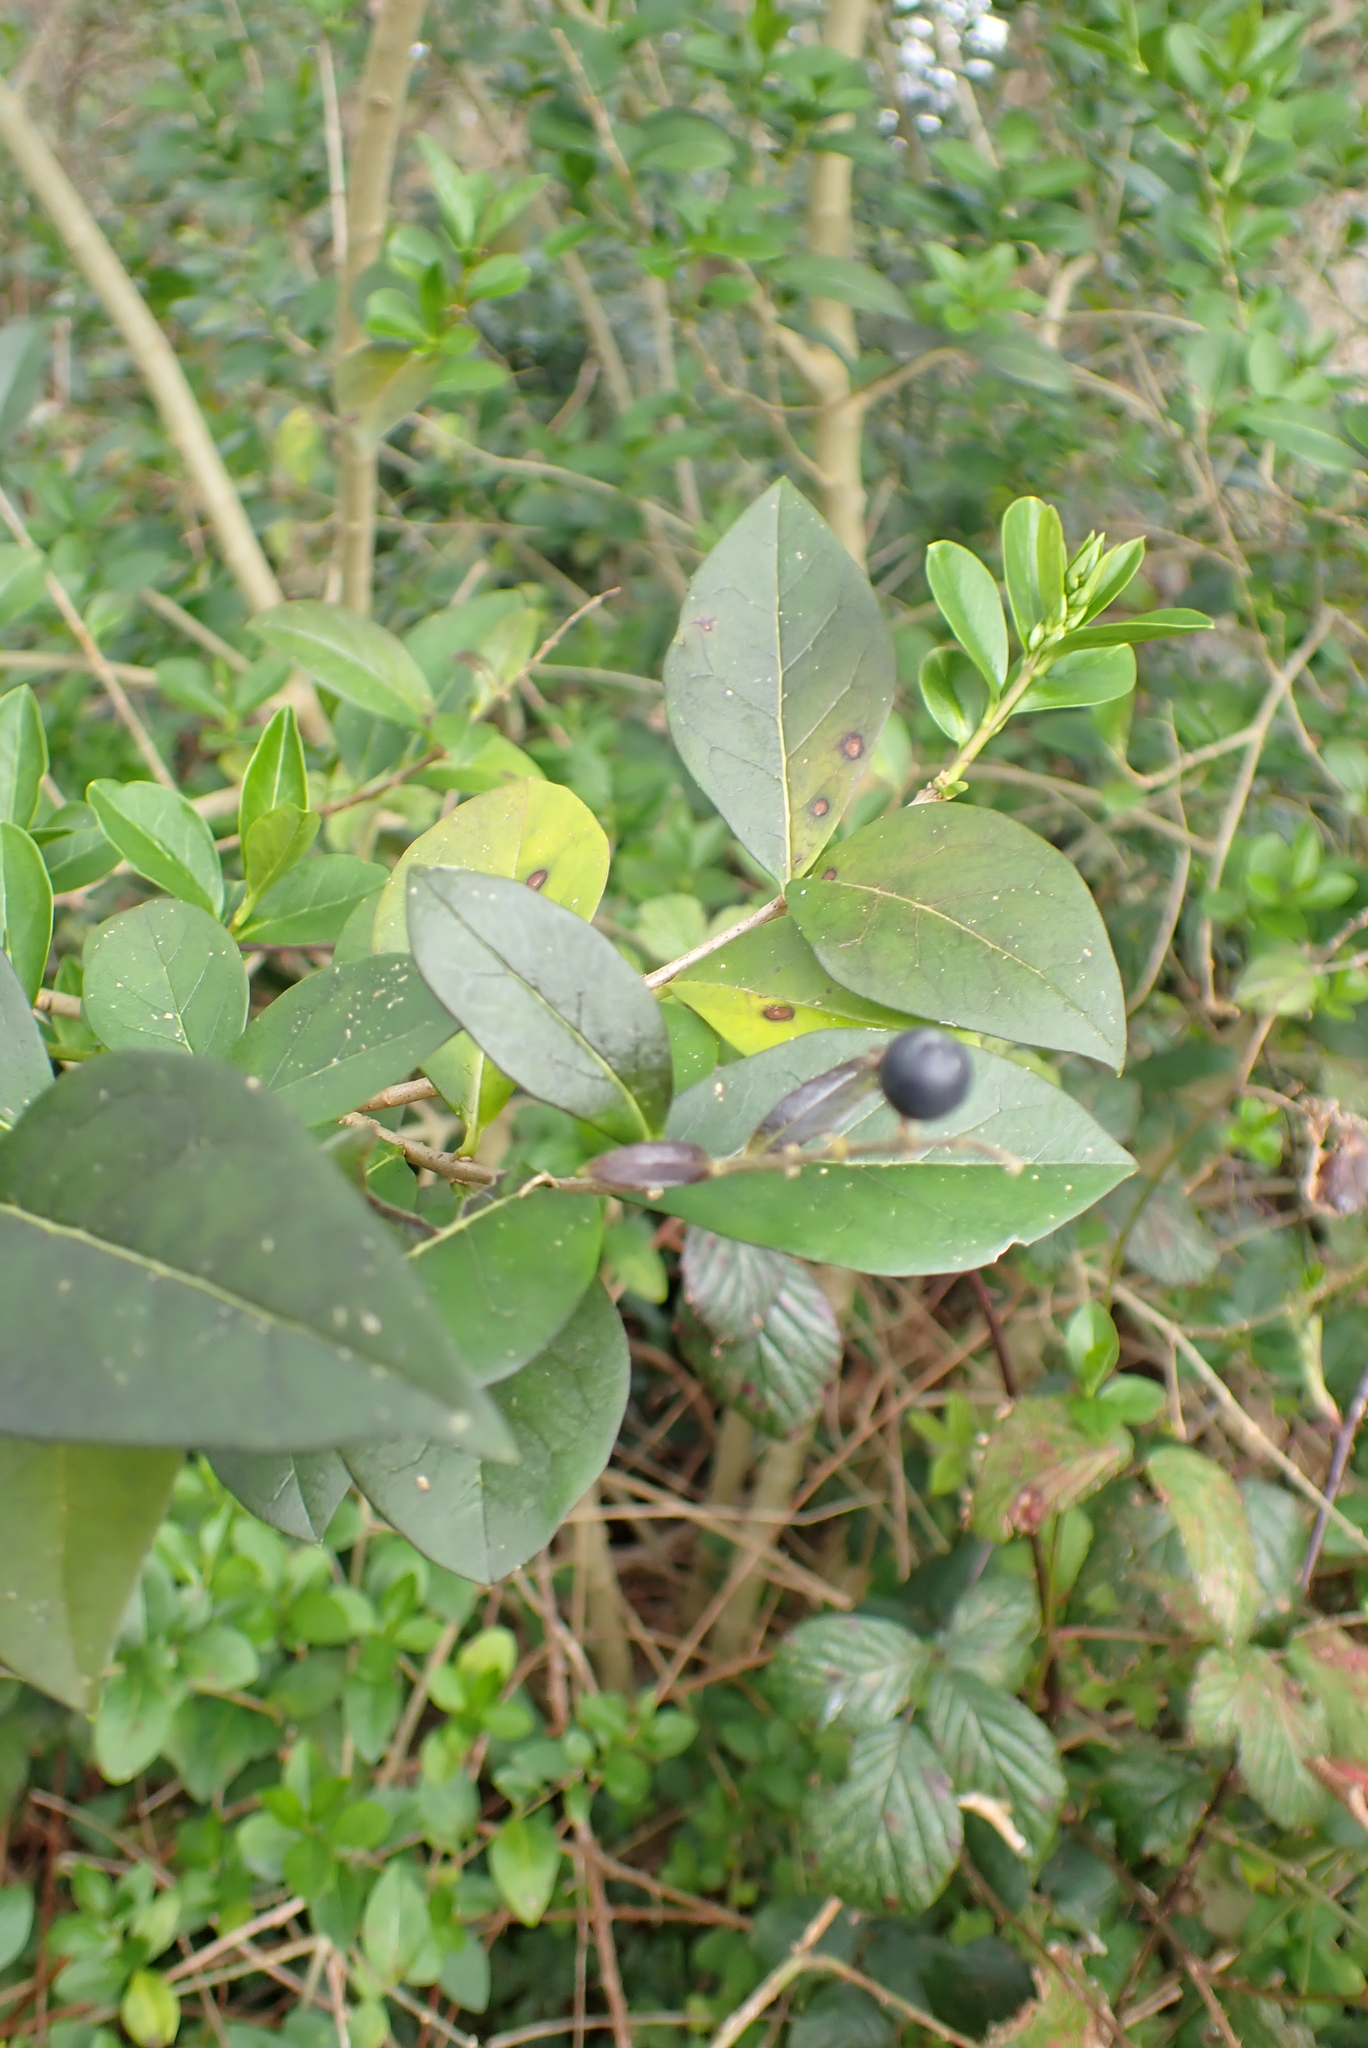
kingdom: Plantae
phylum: Tracheophyta
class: Magnoliopsida
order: Lamiales
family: Oleaceae
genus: Ligustrum
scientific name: Ligustrum ovalifolium
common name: California privet
